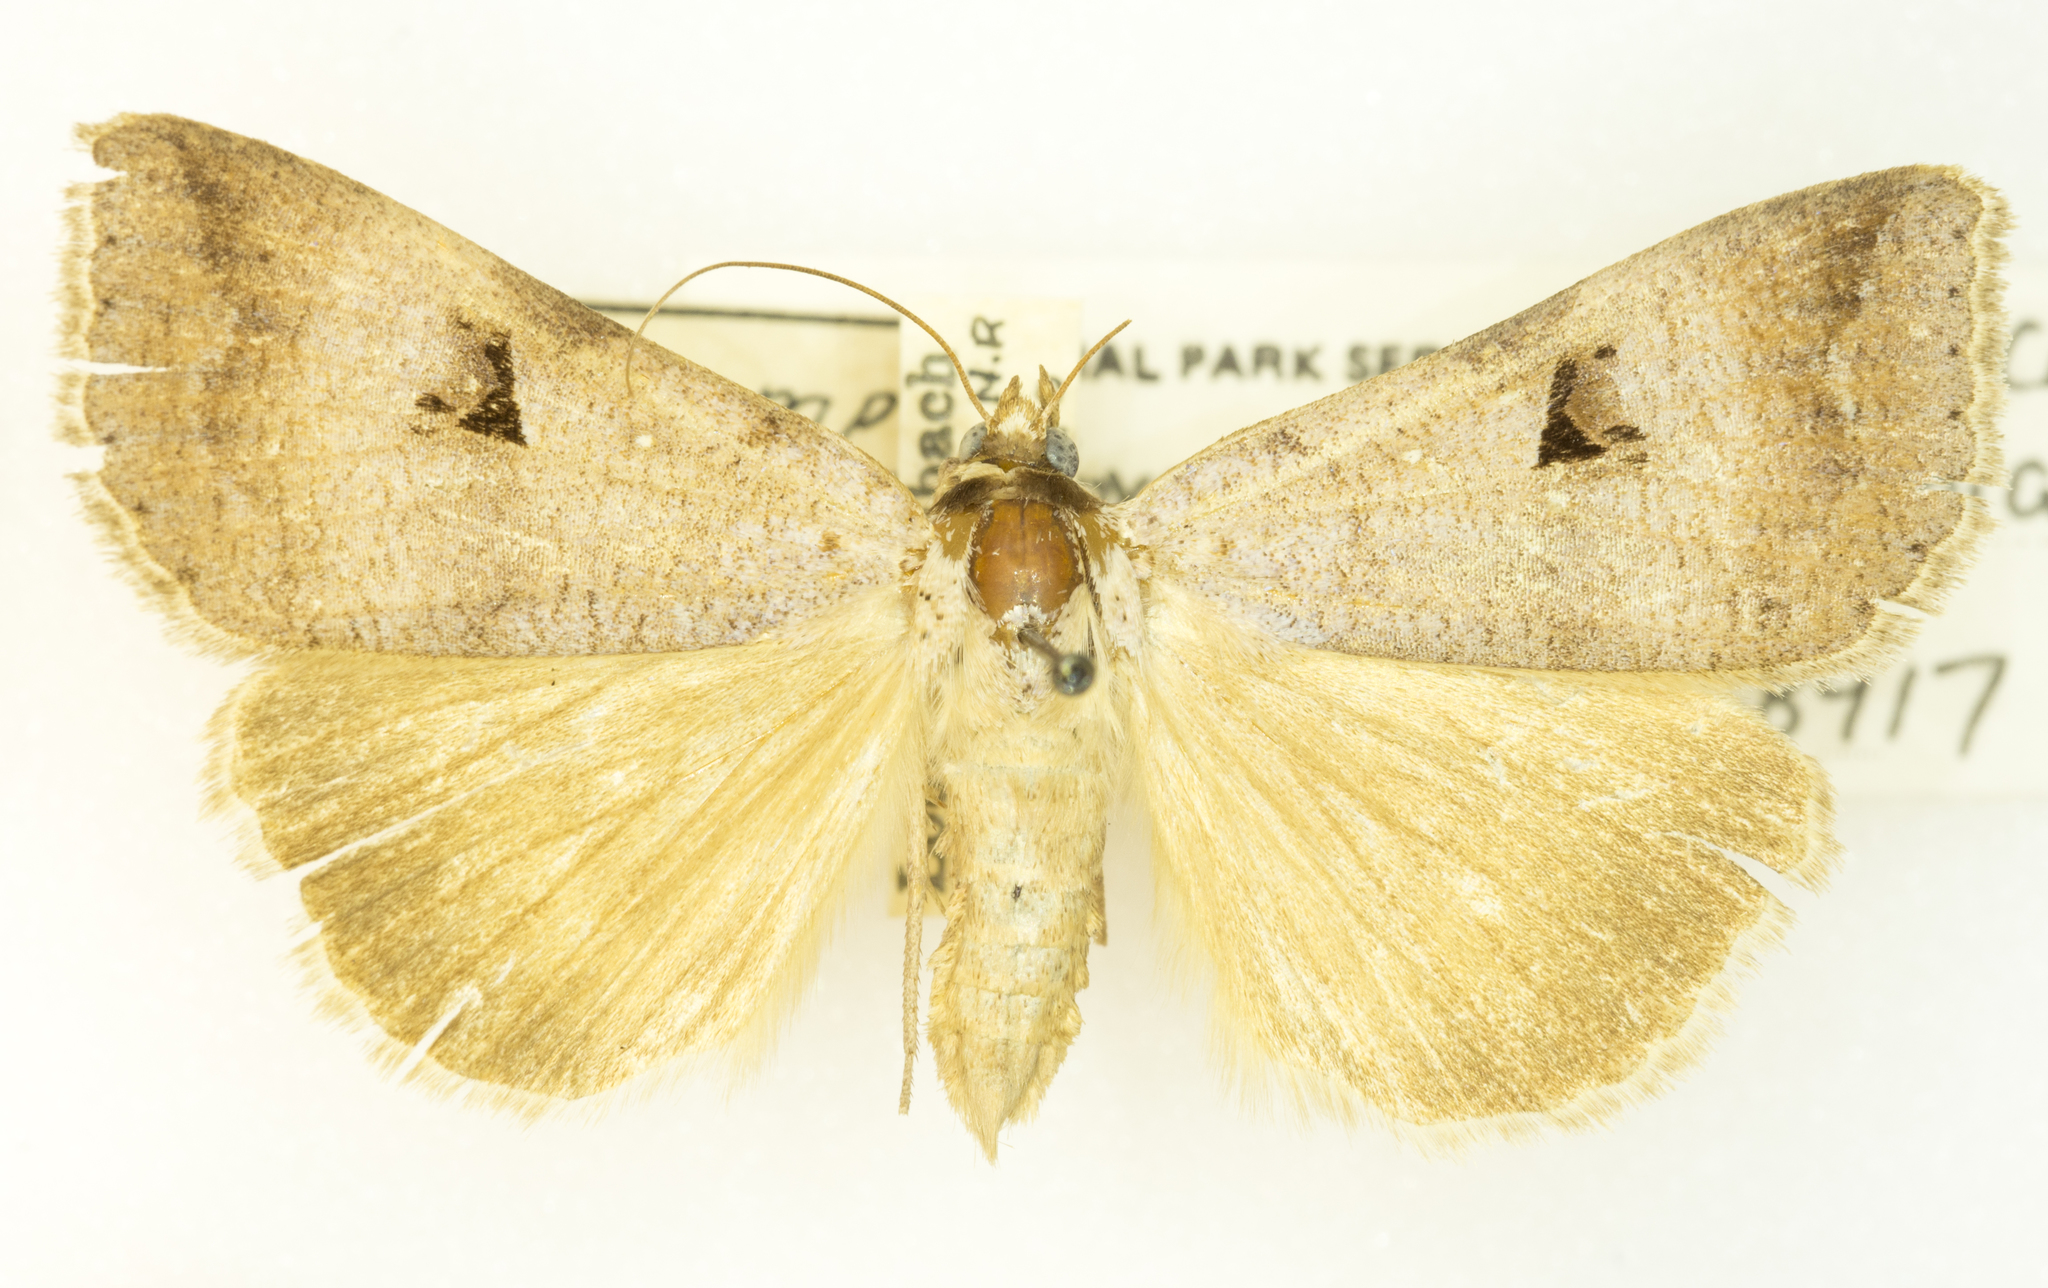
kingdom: Animalia
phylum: Arthropoda
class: Insecta
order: Lepidoptera
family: Erebidae
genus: Lygephila
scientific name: Lygephila victoria
